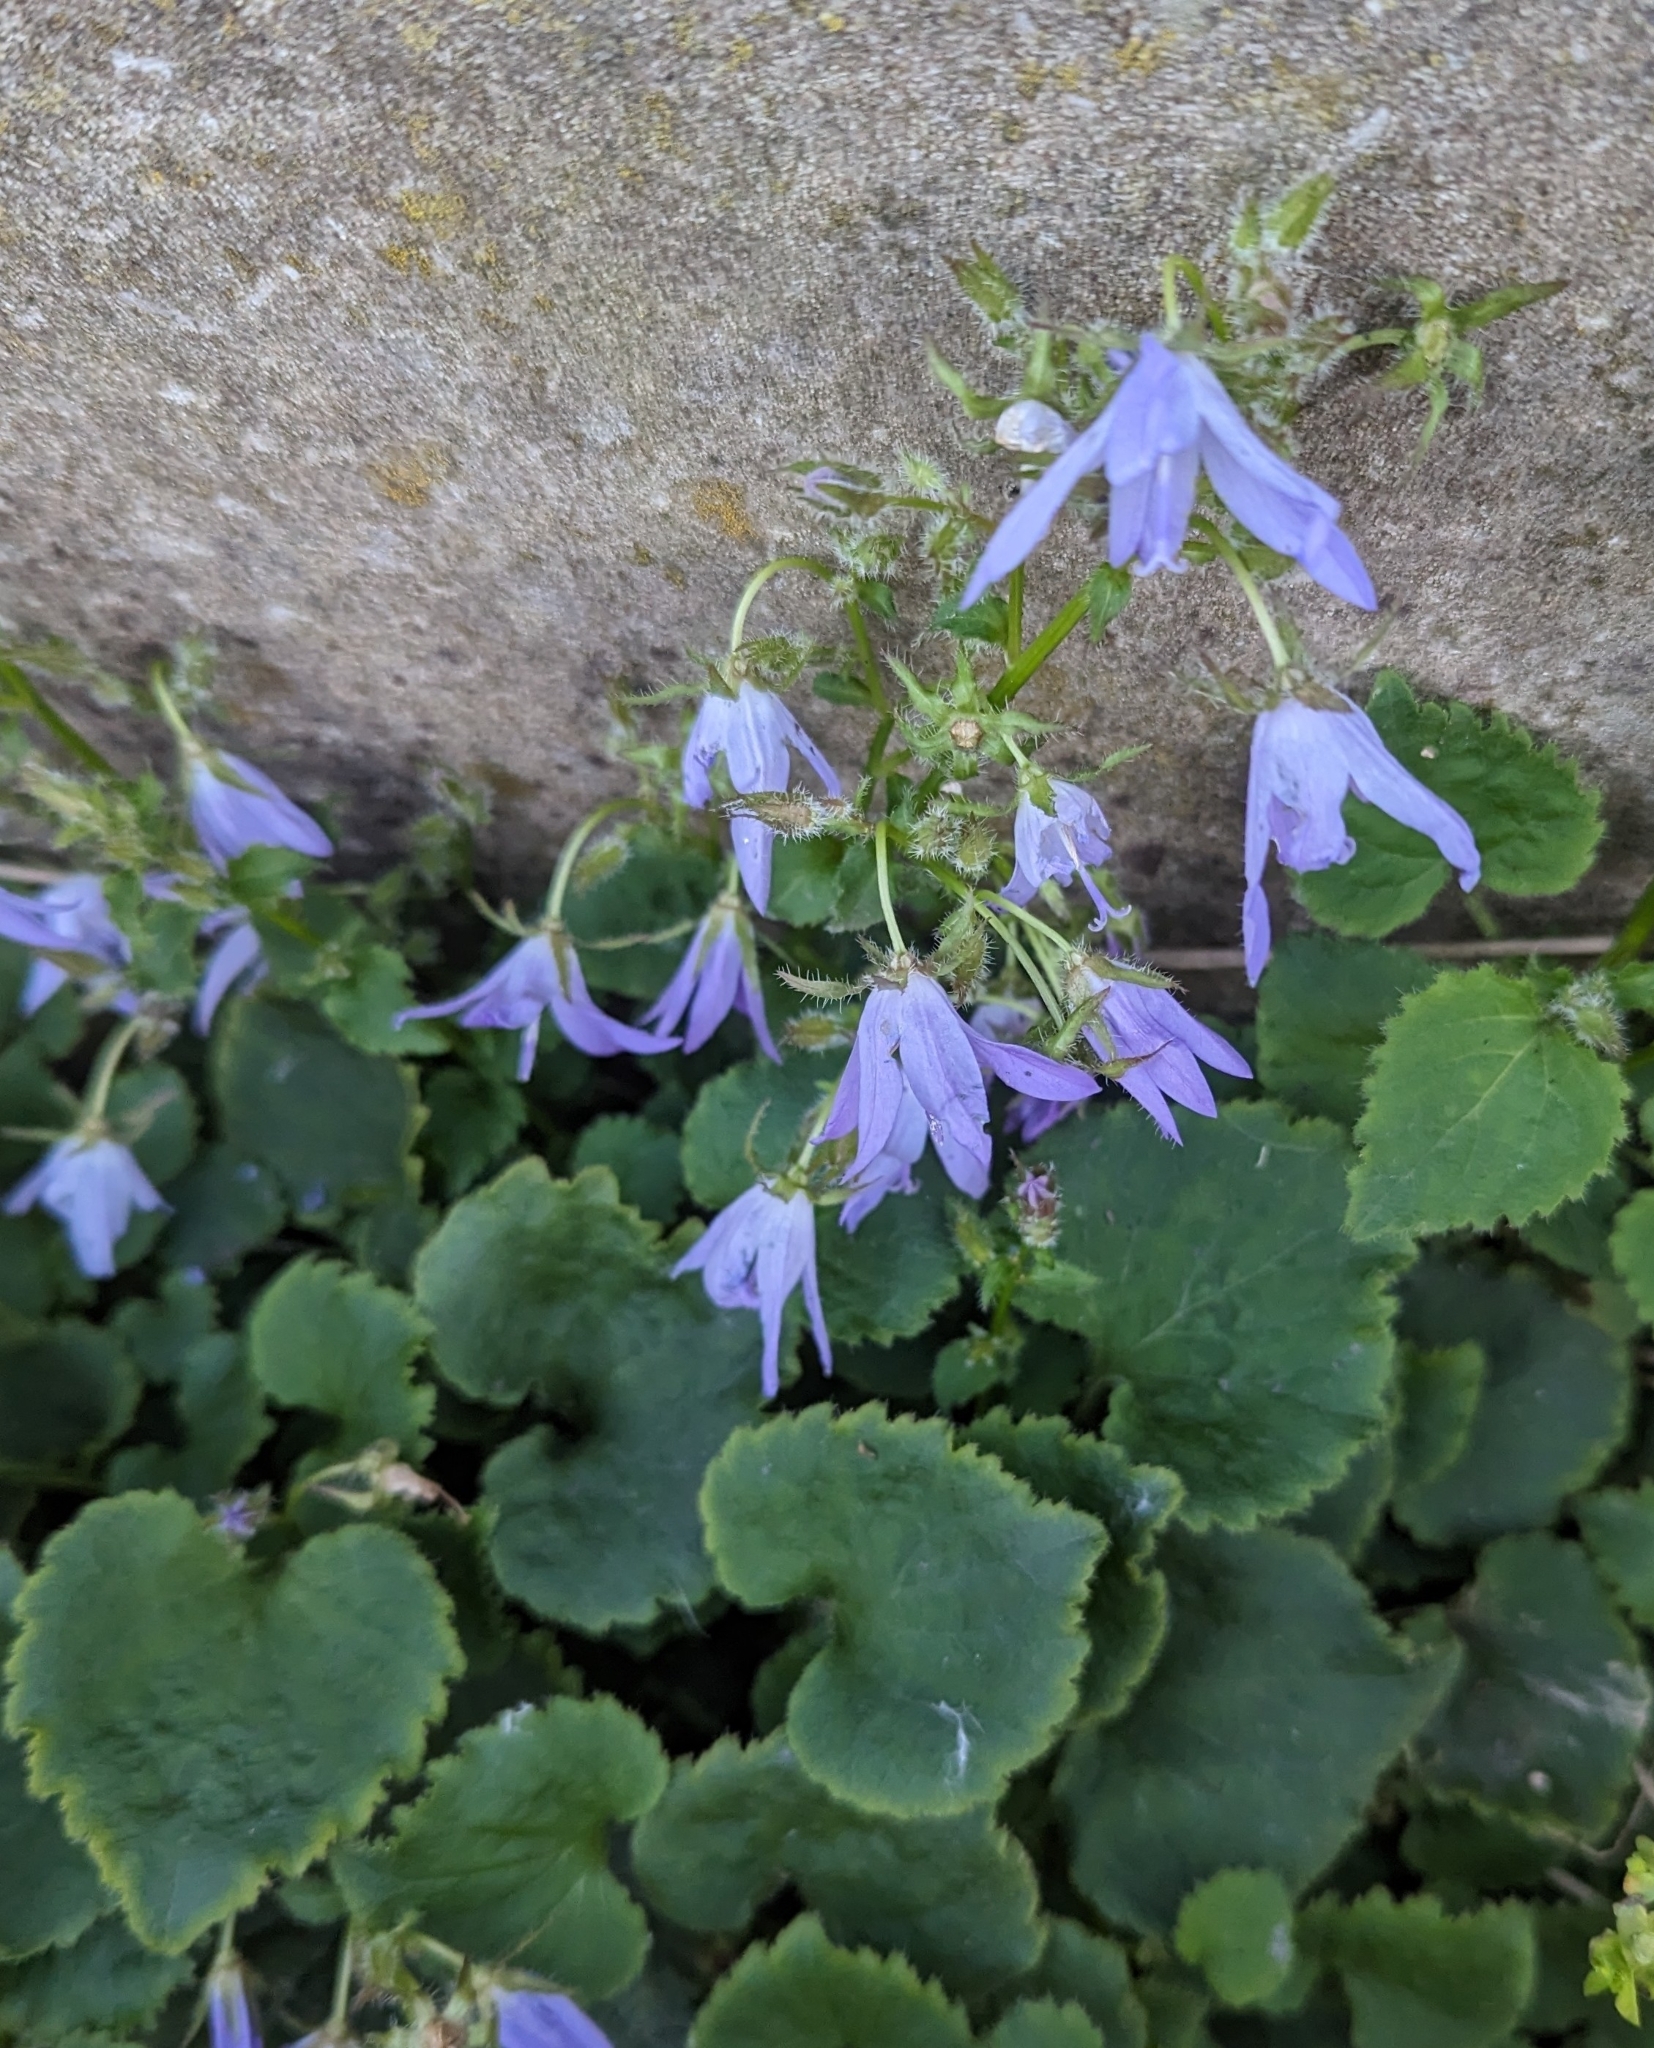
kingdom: Plantae
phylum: Tracheophyta
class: Magnoliopsida
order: Asterales
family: Campanulaceae
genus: Campanula
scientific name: Campanula poscharskyana
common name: Trailing bellflower
